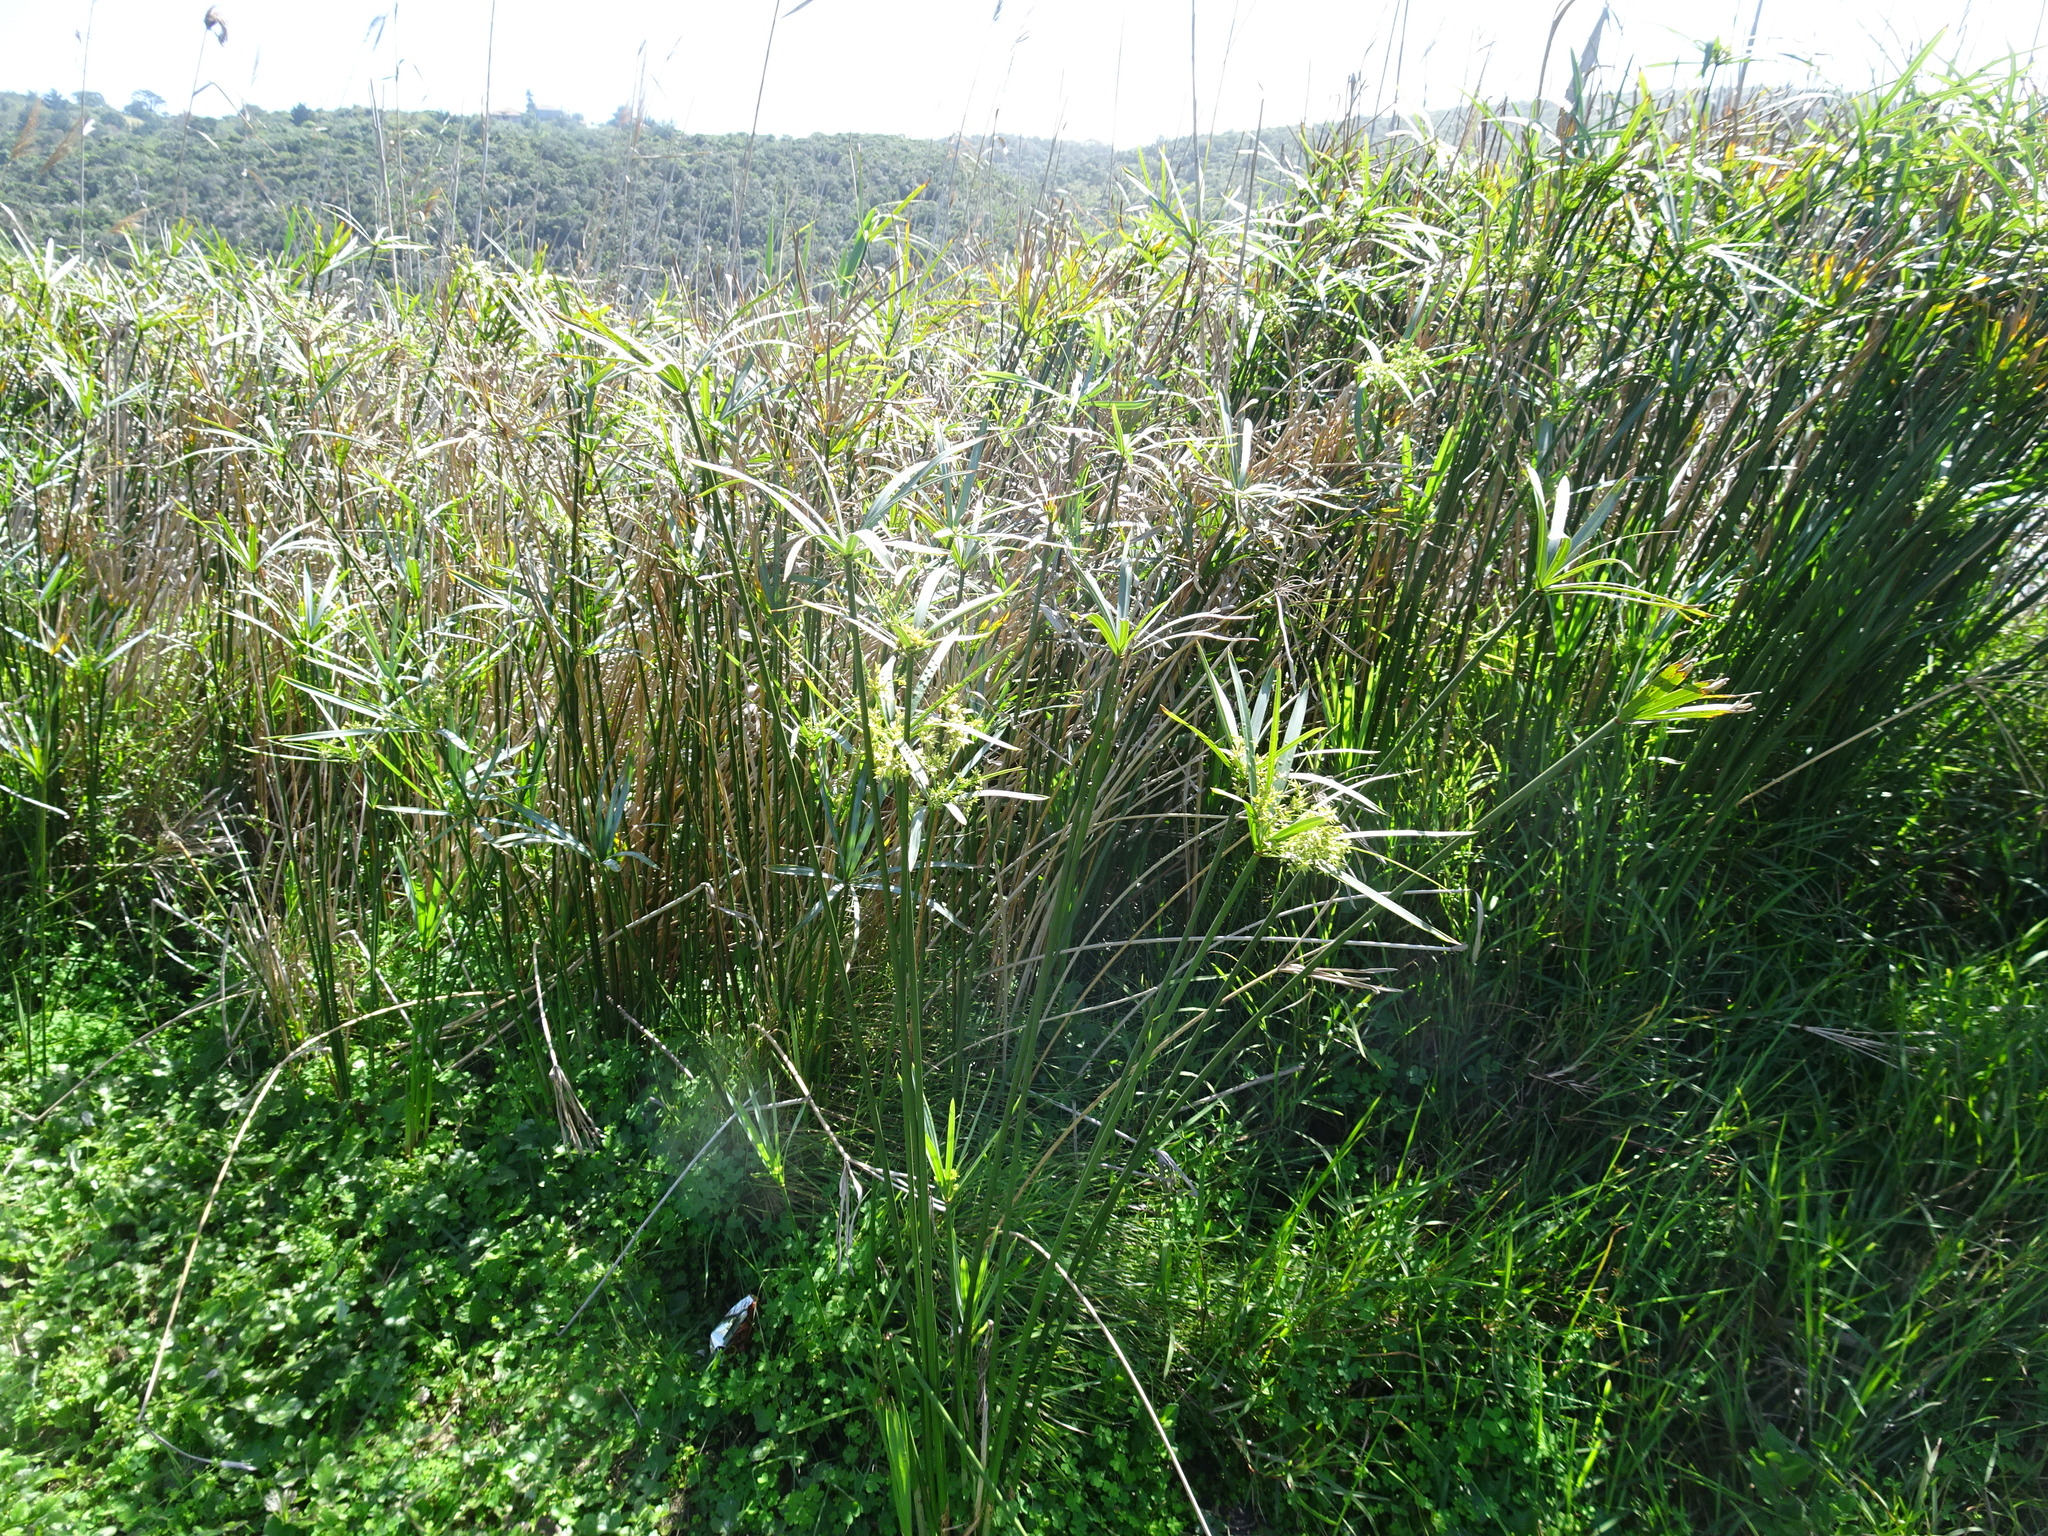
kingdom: Plantae
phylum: Tracheophyta
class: Liliopsida
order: Poales
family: Cyperaceae
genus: Cyperus
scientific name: Cyperus textilis
